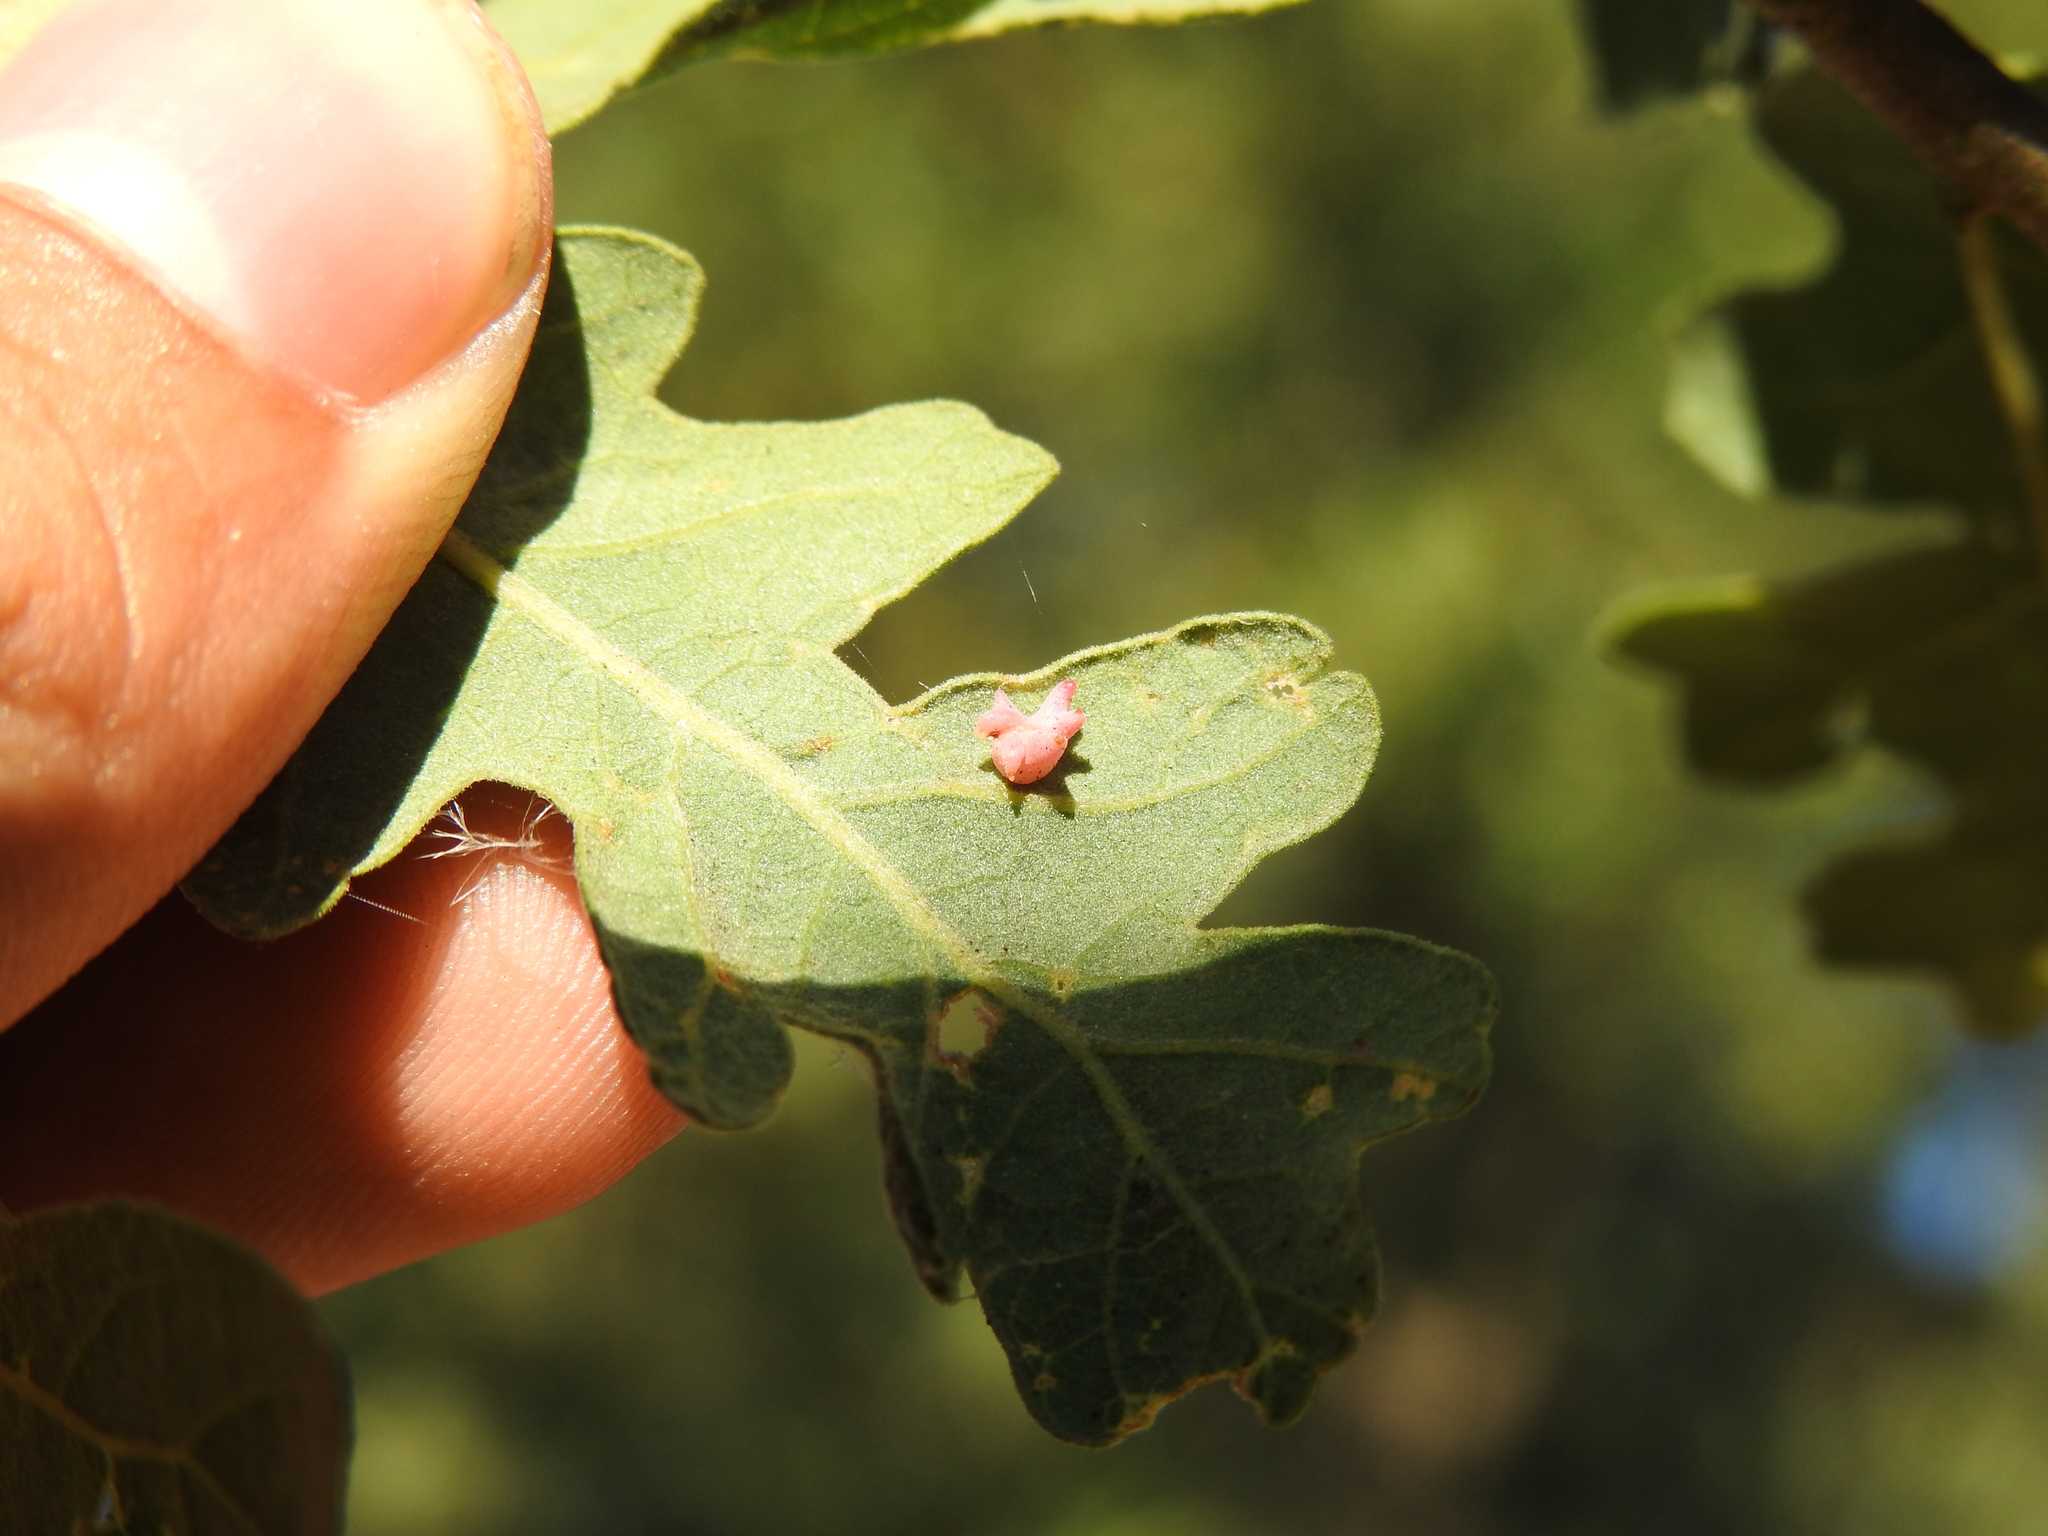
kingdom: Animalia
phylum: Arthropoda
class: Insecta
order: Hymenoptera
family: Cynipidae
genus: Cynips
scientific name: Cynips douglasi
